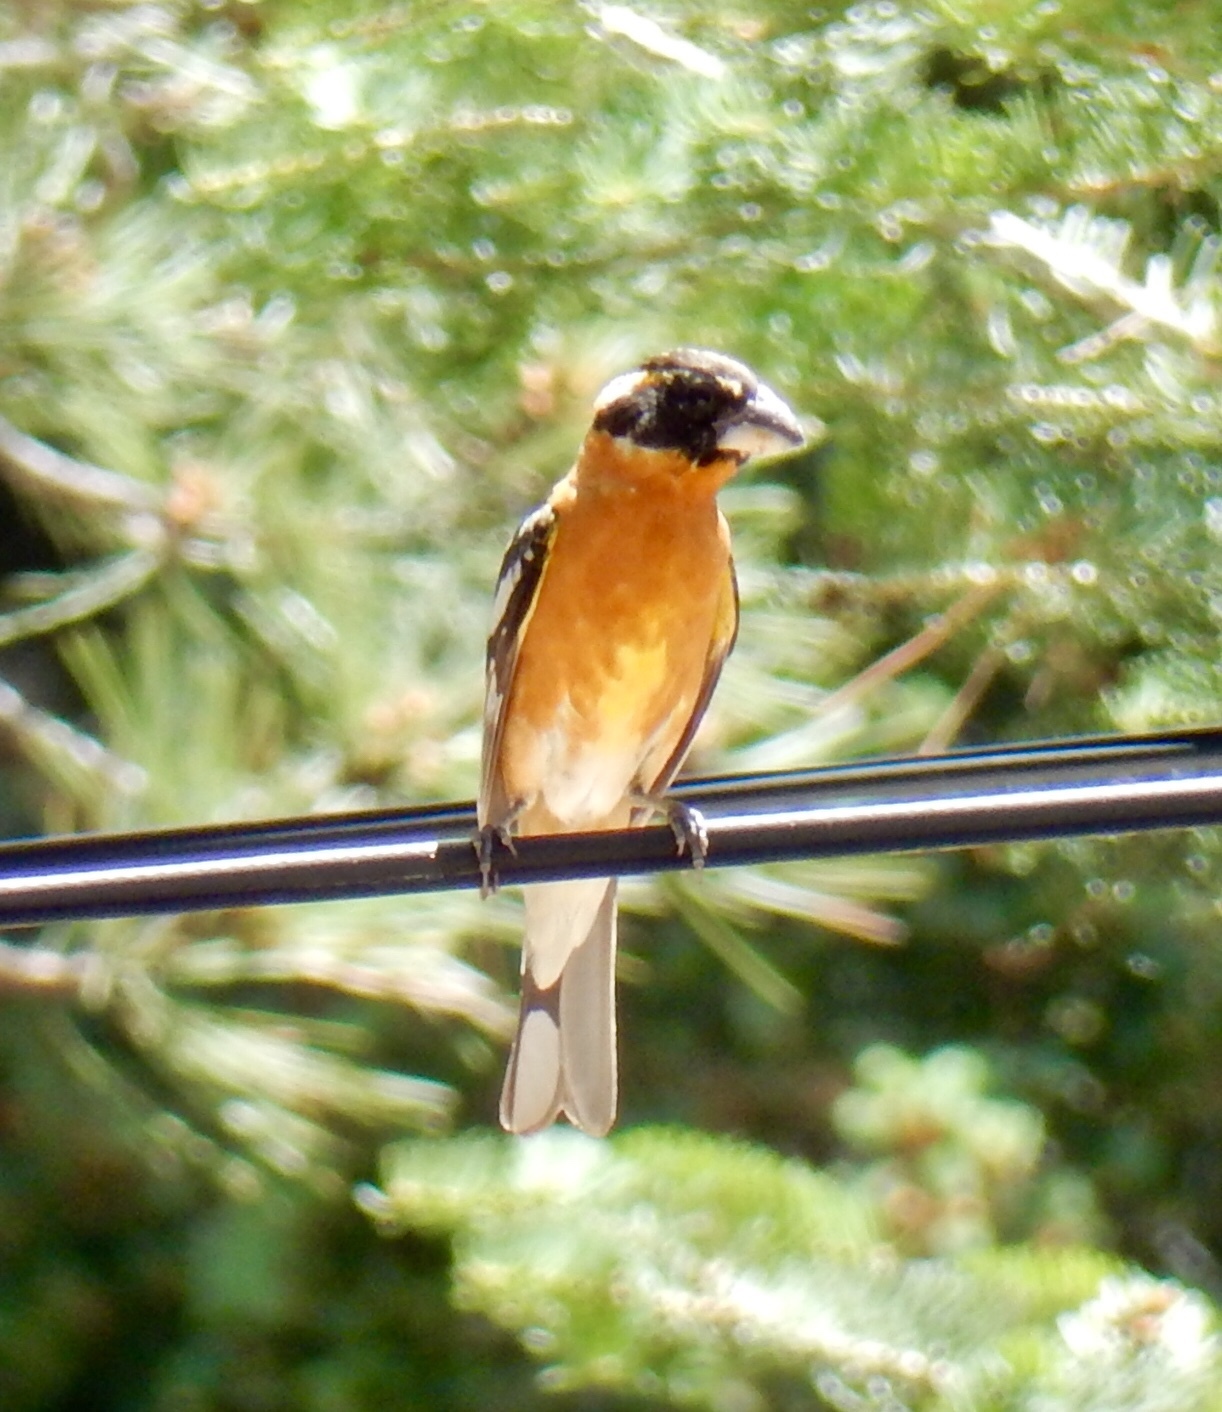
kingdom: Animalia
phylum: Chordata
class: Aves
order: Passeriformes
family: Cardinalidae
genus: Pheucticus
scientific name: Pheucticus melanocephalus
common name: Black-headed grosbeak
